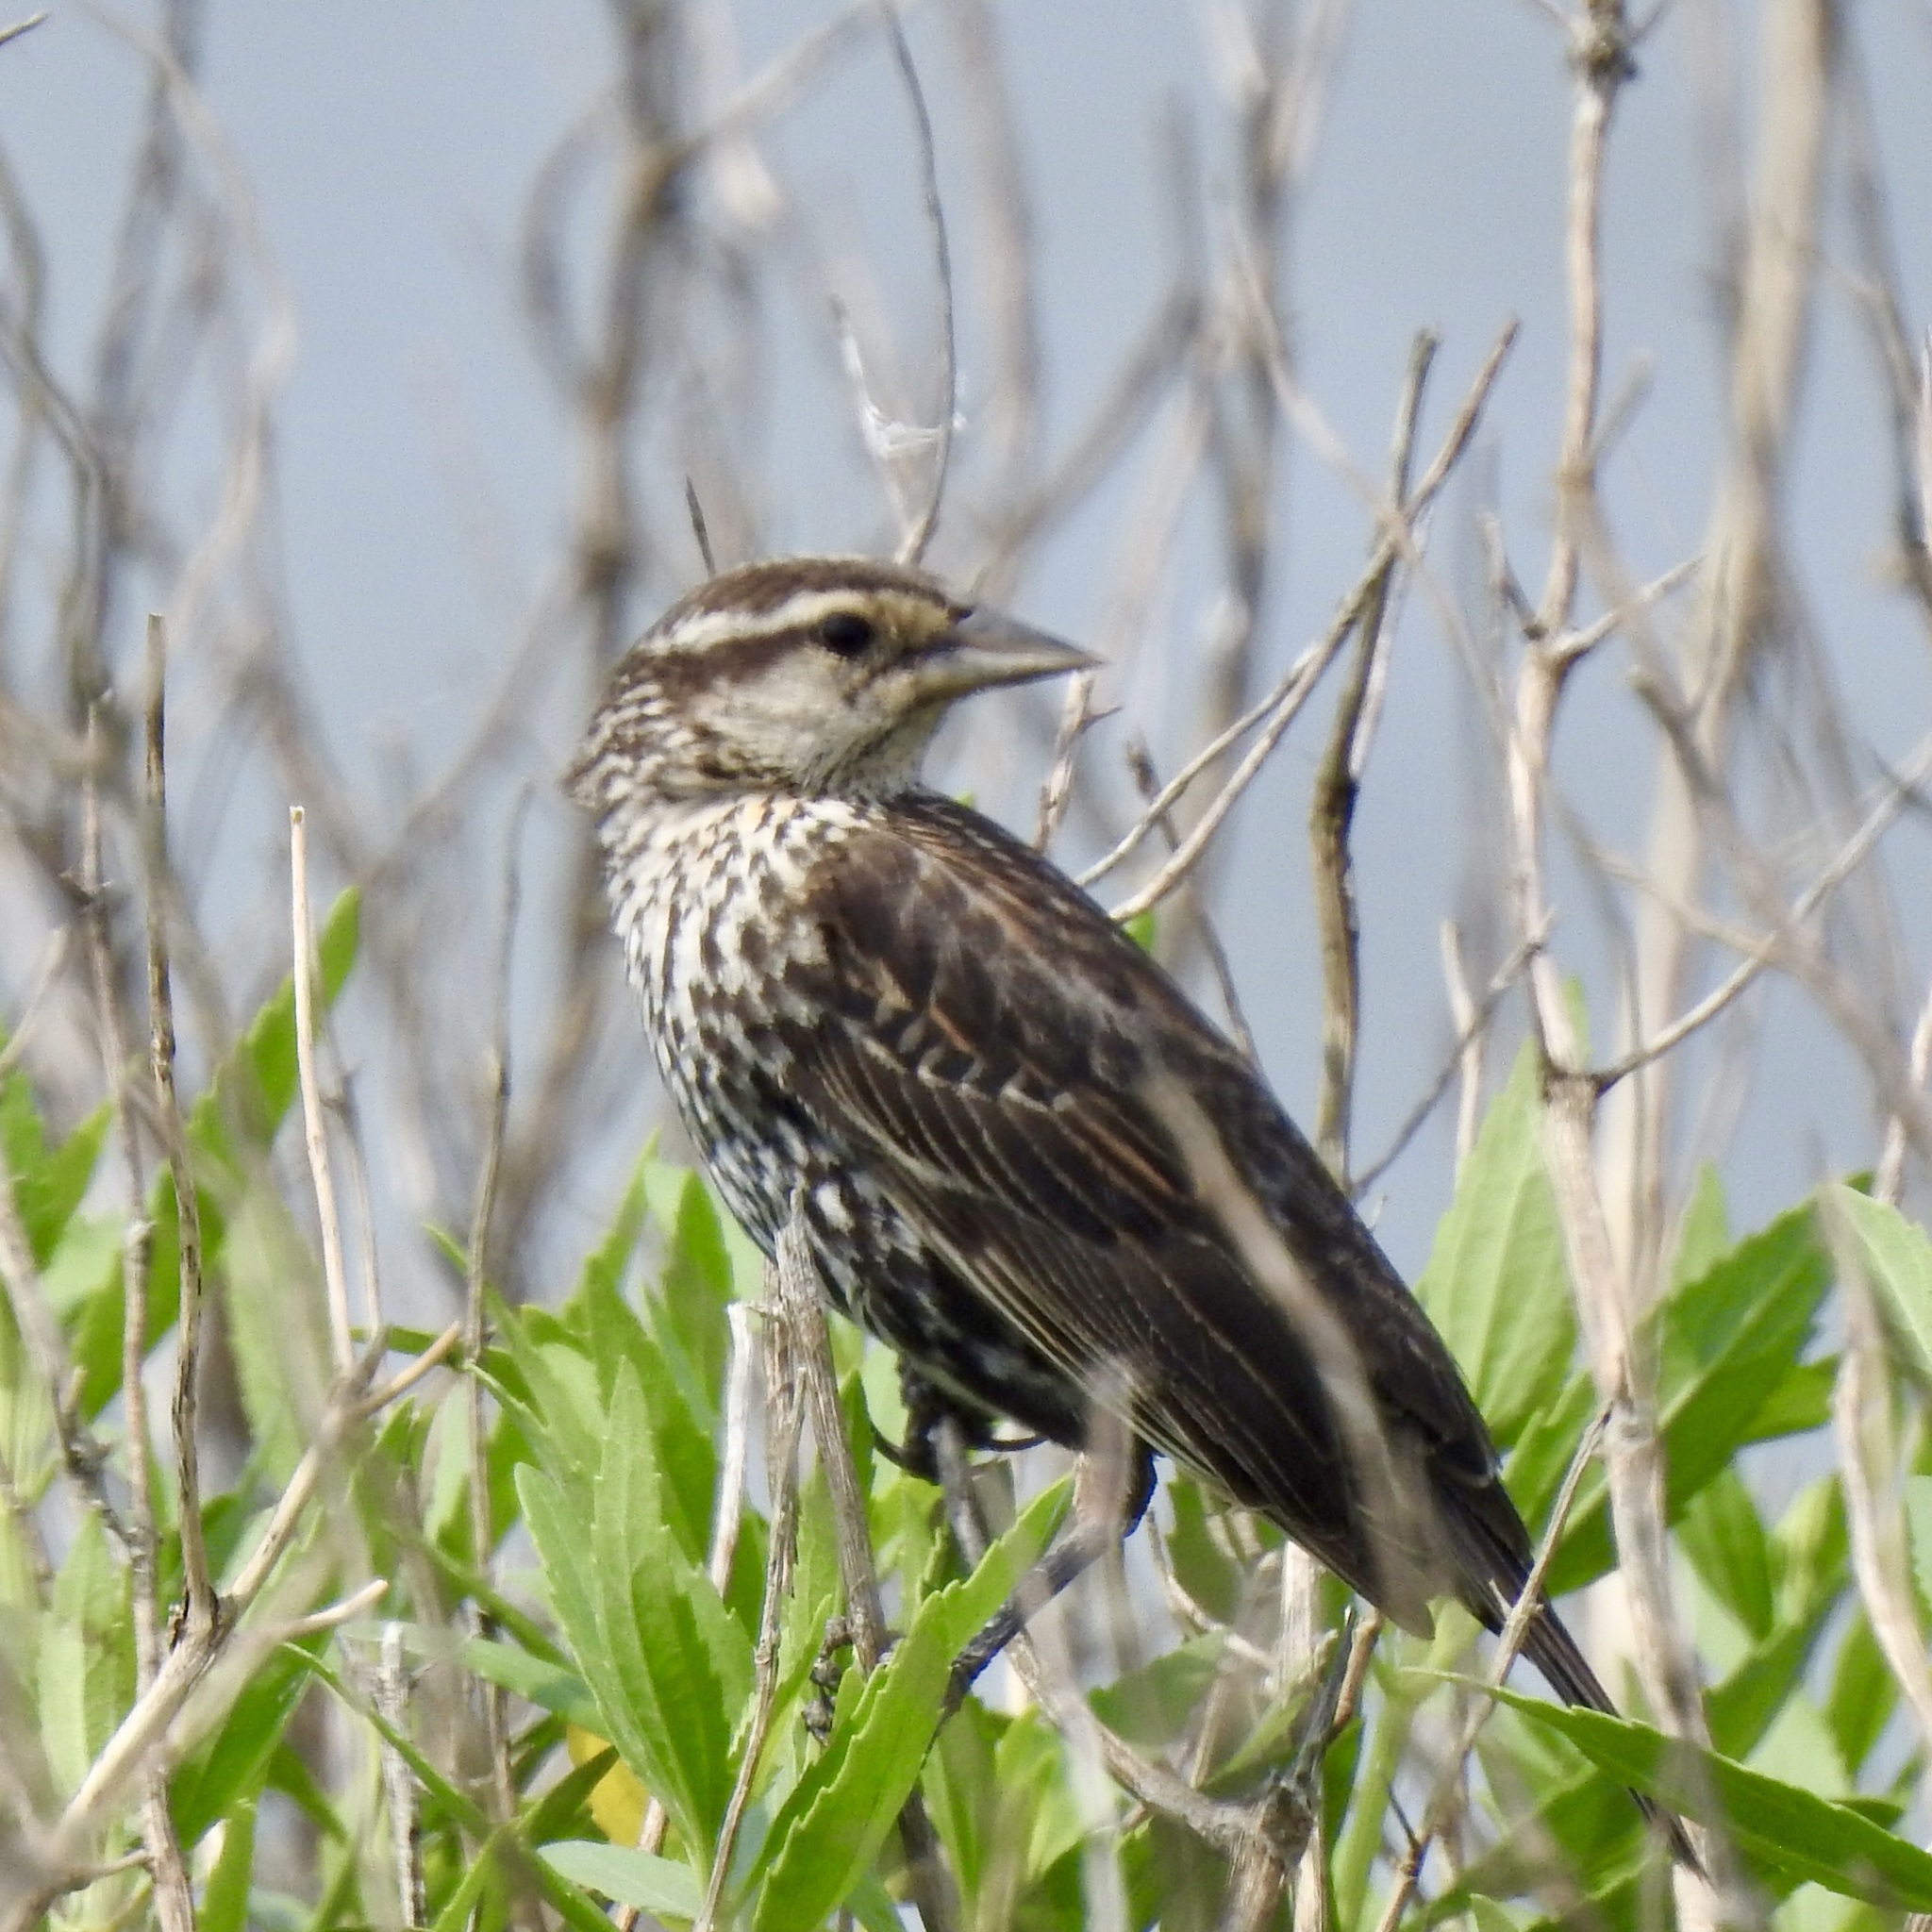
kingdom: Animalia
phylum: Chordata
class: Aves
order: Passeriformes
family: Icteridae
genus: Agelaius
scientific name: Agelaius phoeniceus
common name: Red-winged blackbird
